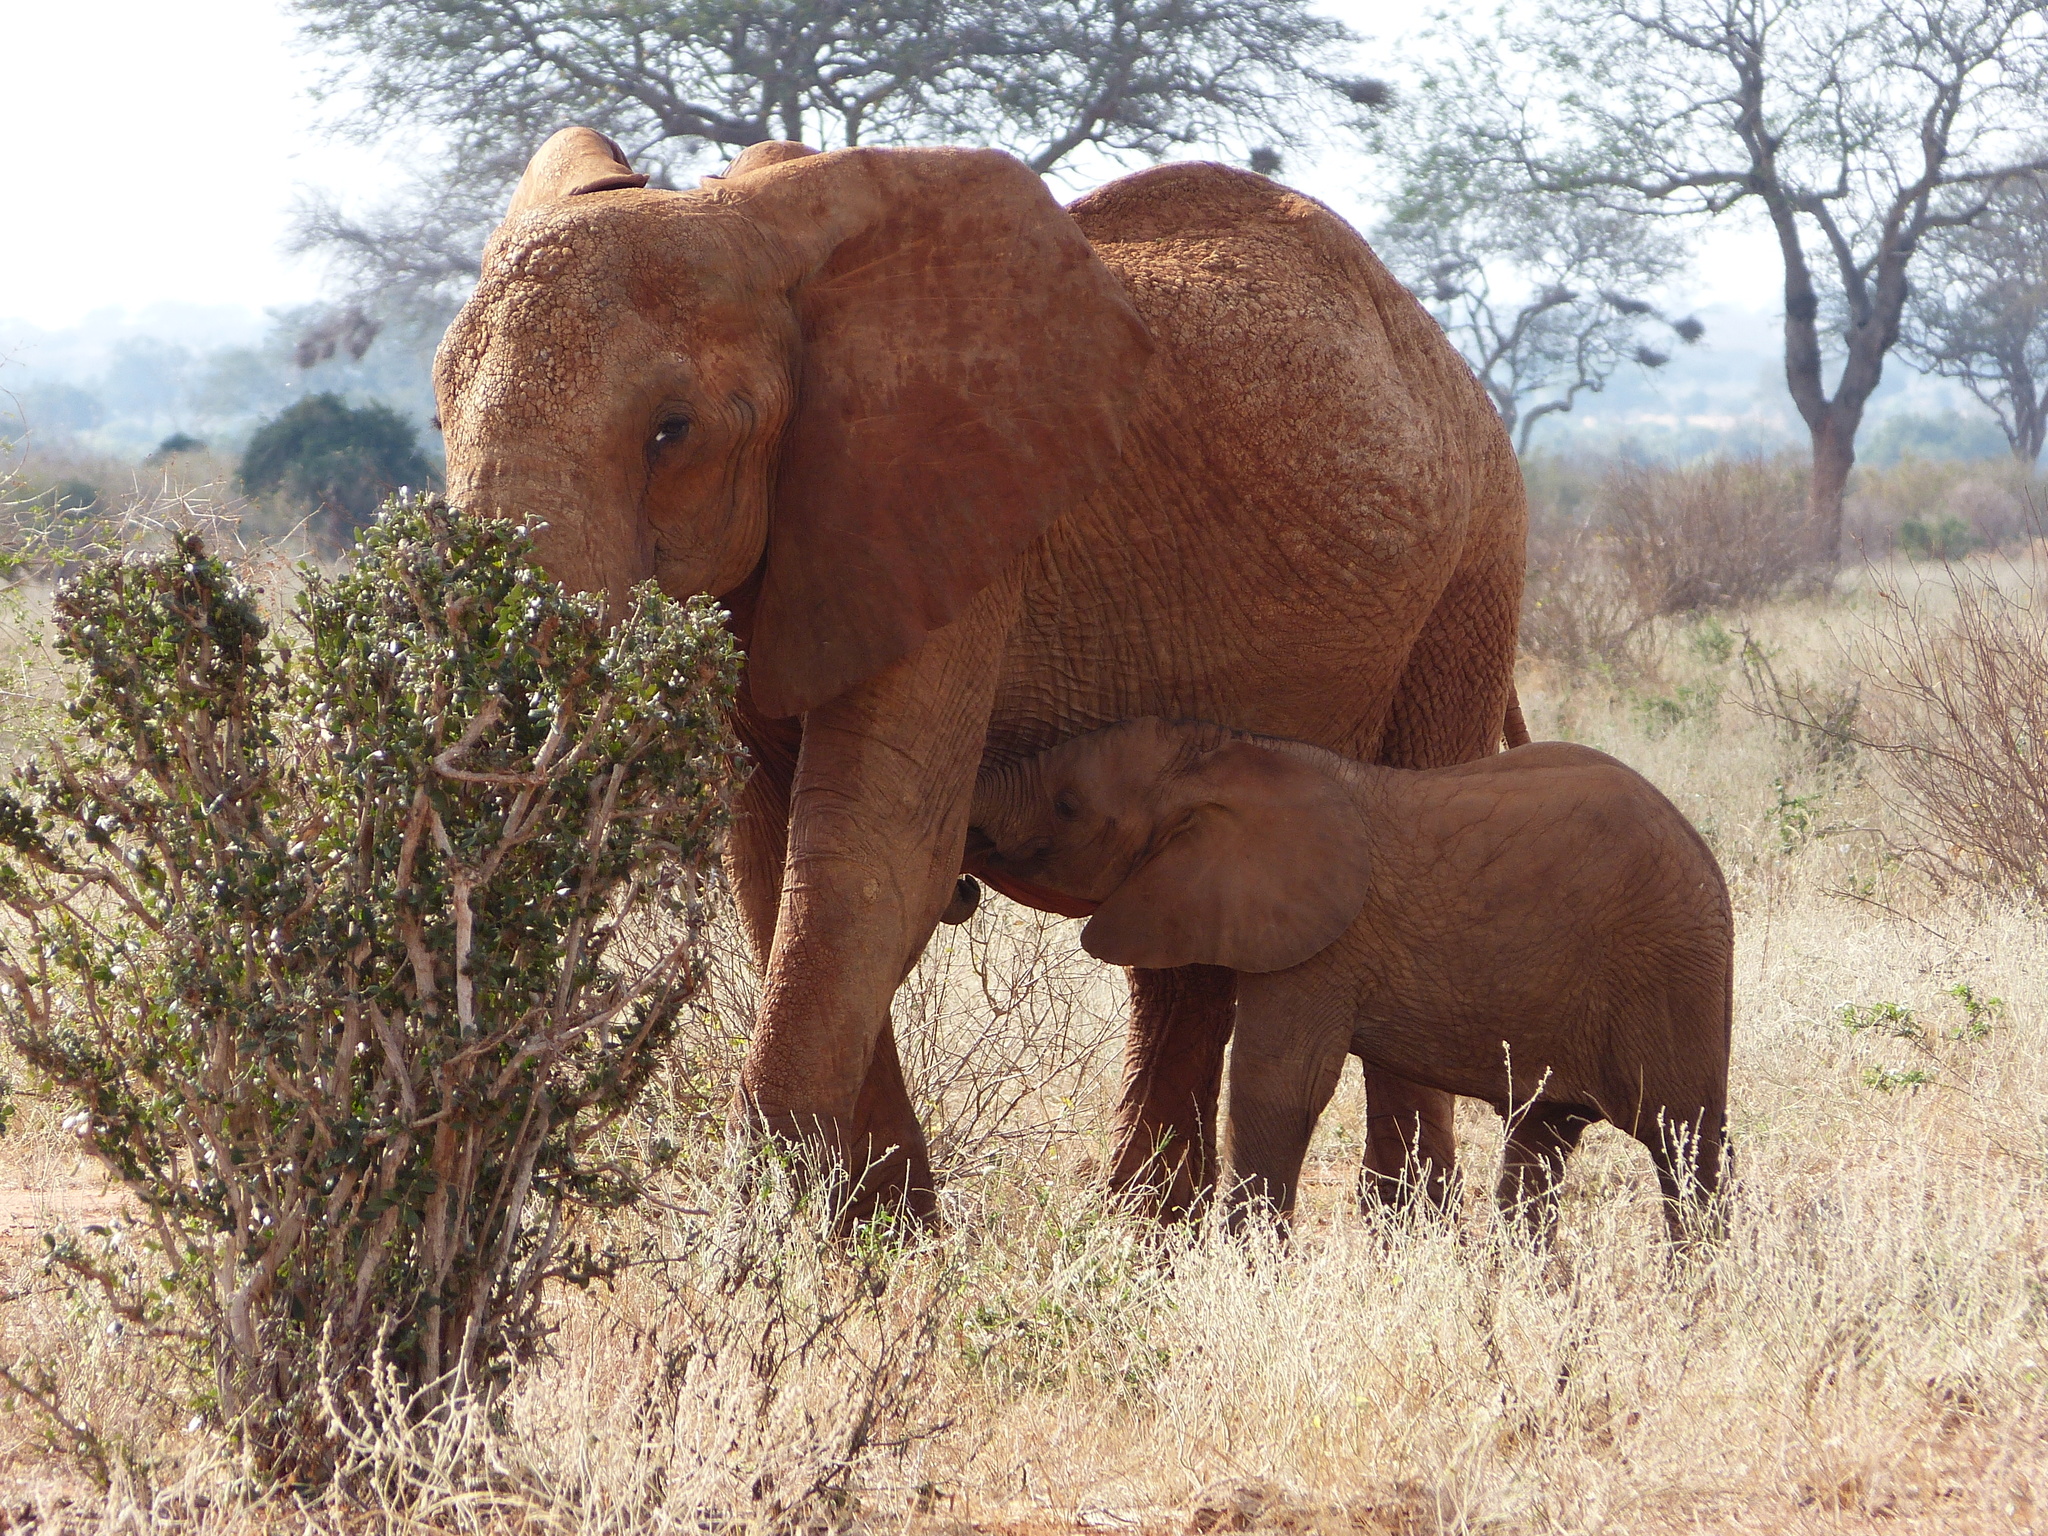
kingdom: Animalia
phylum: Chordata
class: Mammalia
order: Proboscidea
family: Elephantidae
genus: Loxodonta
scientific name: Loxodonta africana
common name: African elephant
